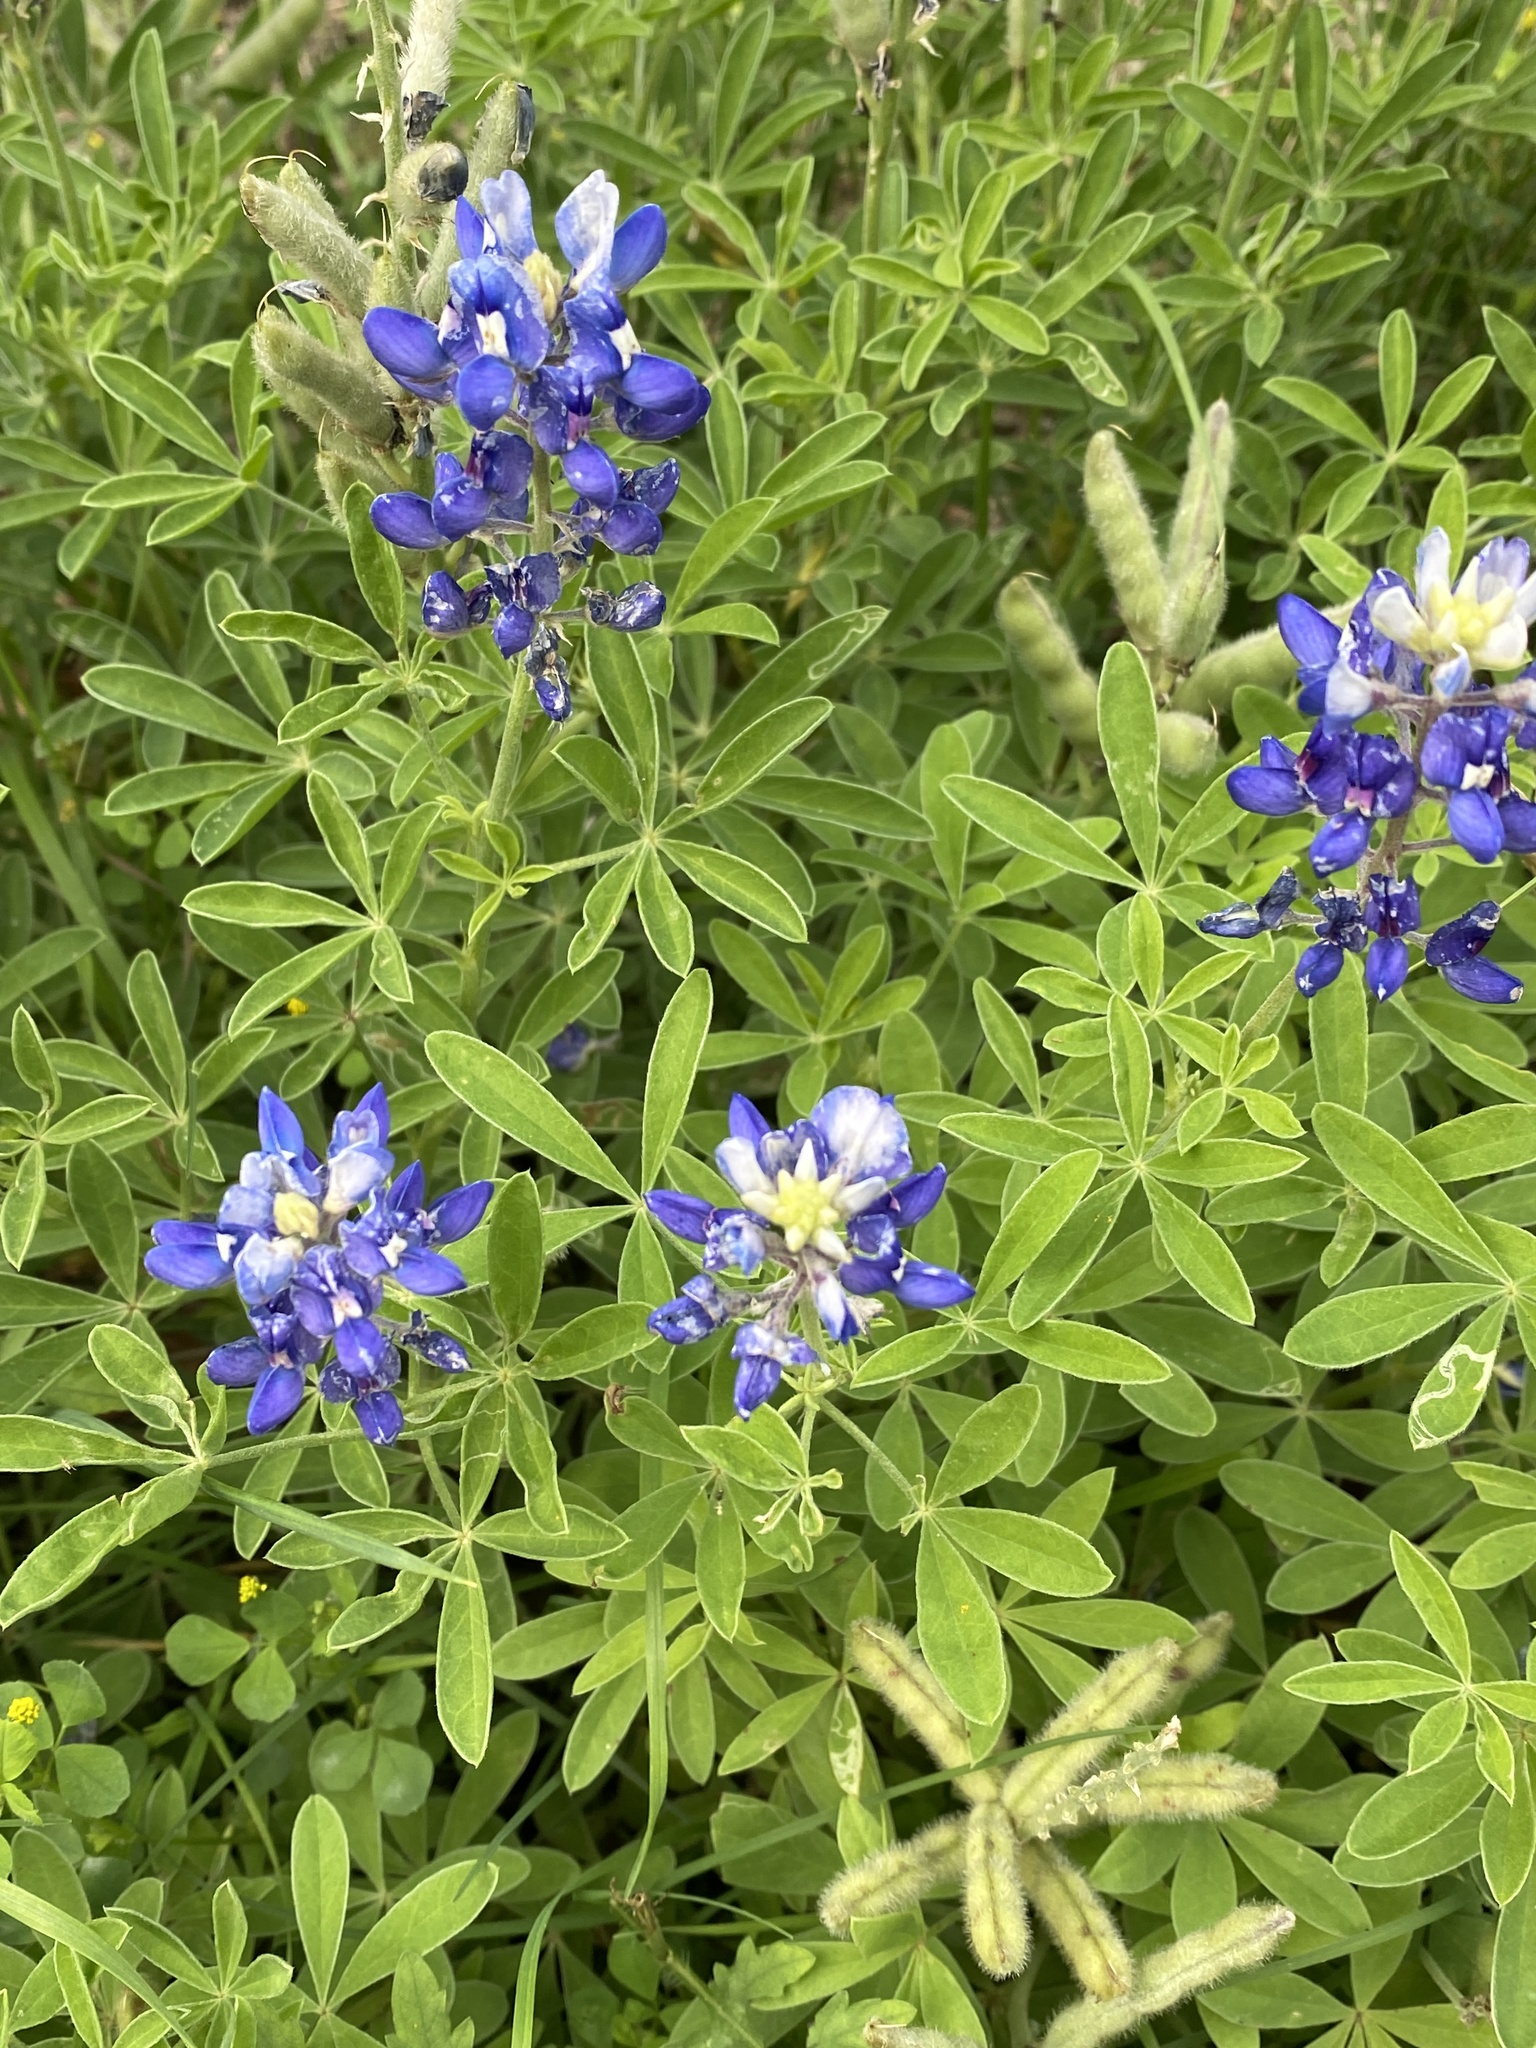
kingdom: Plantae
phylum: Tracheophyta
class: Magnoliopsida
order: Fabales
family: Fabaceae
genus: Lupinus
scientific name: Lupinus texensis
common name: Texas bluebonnet
